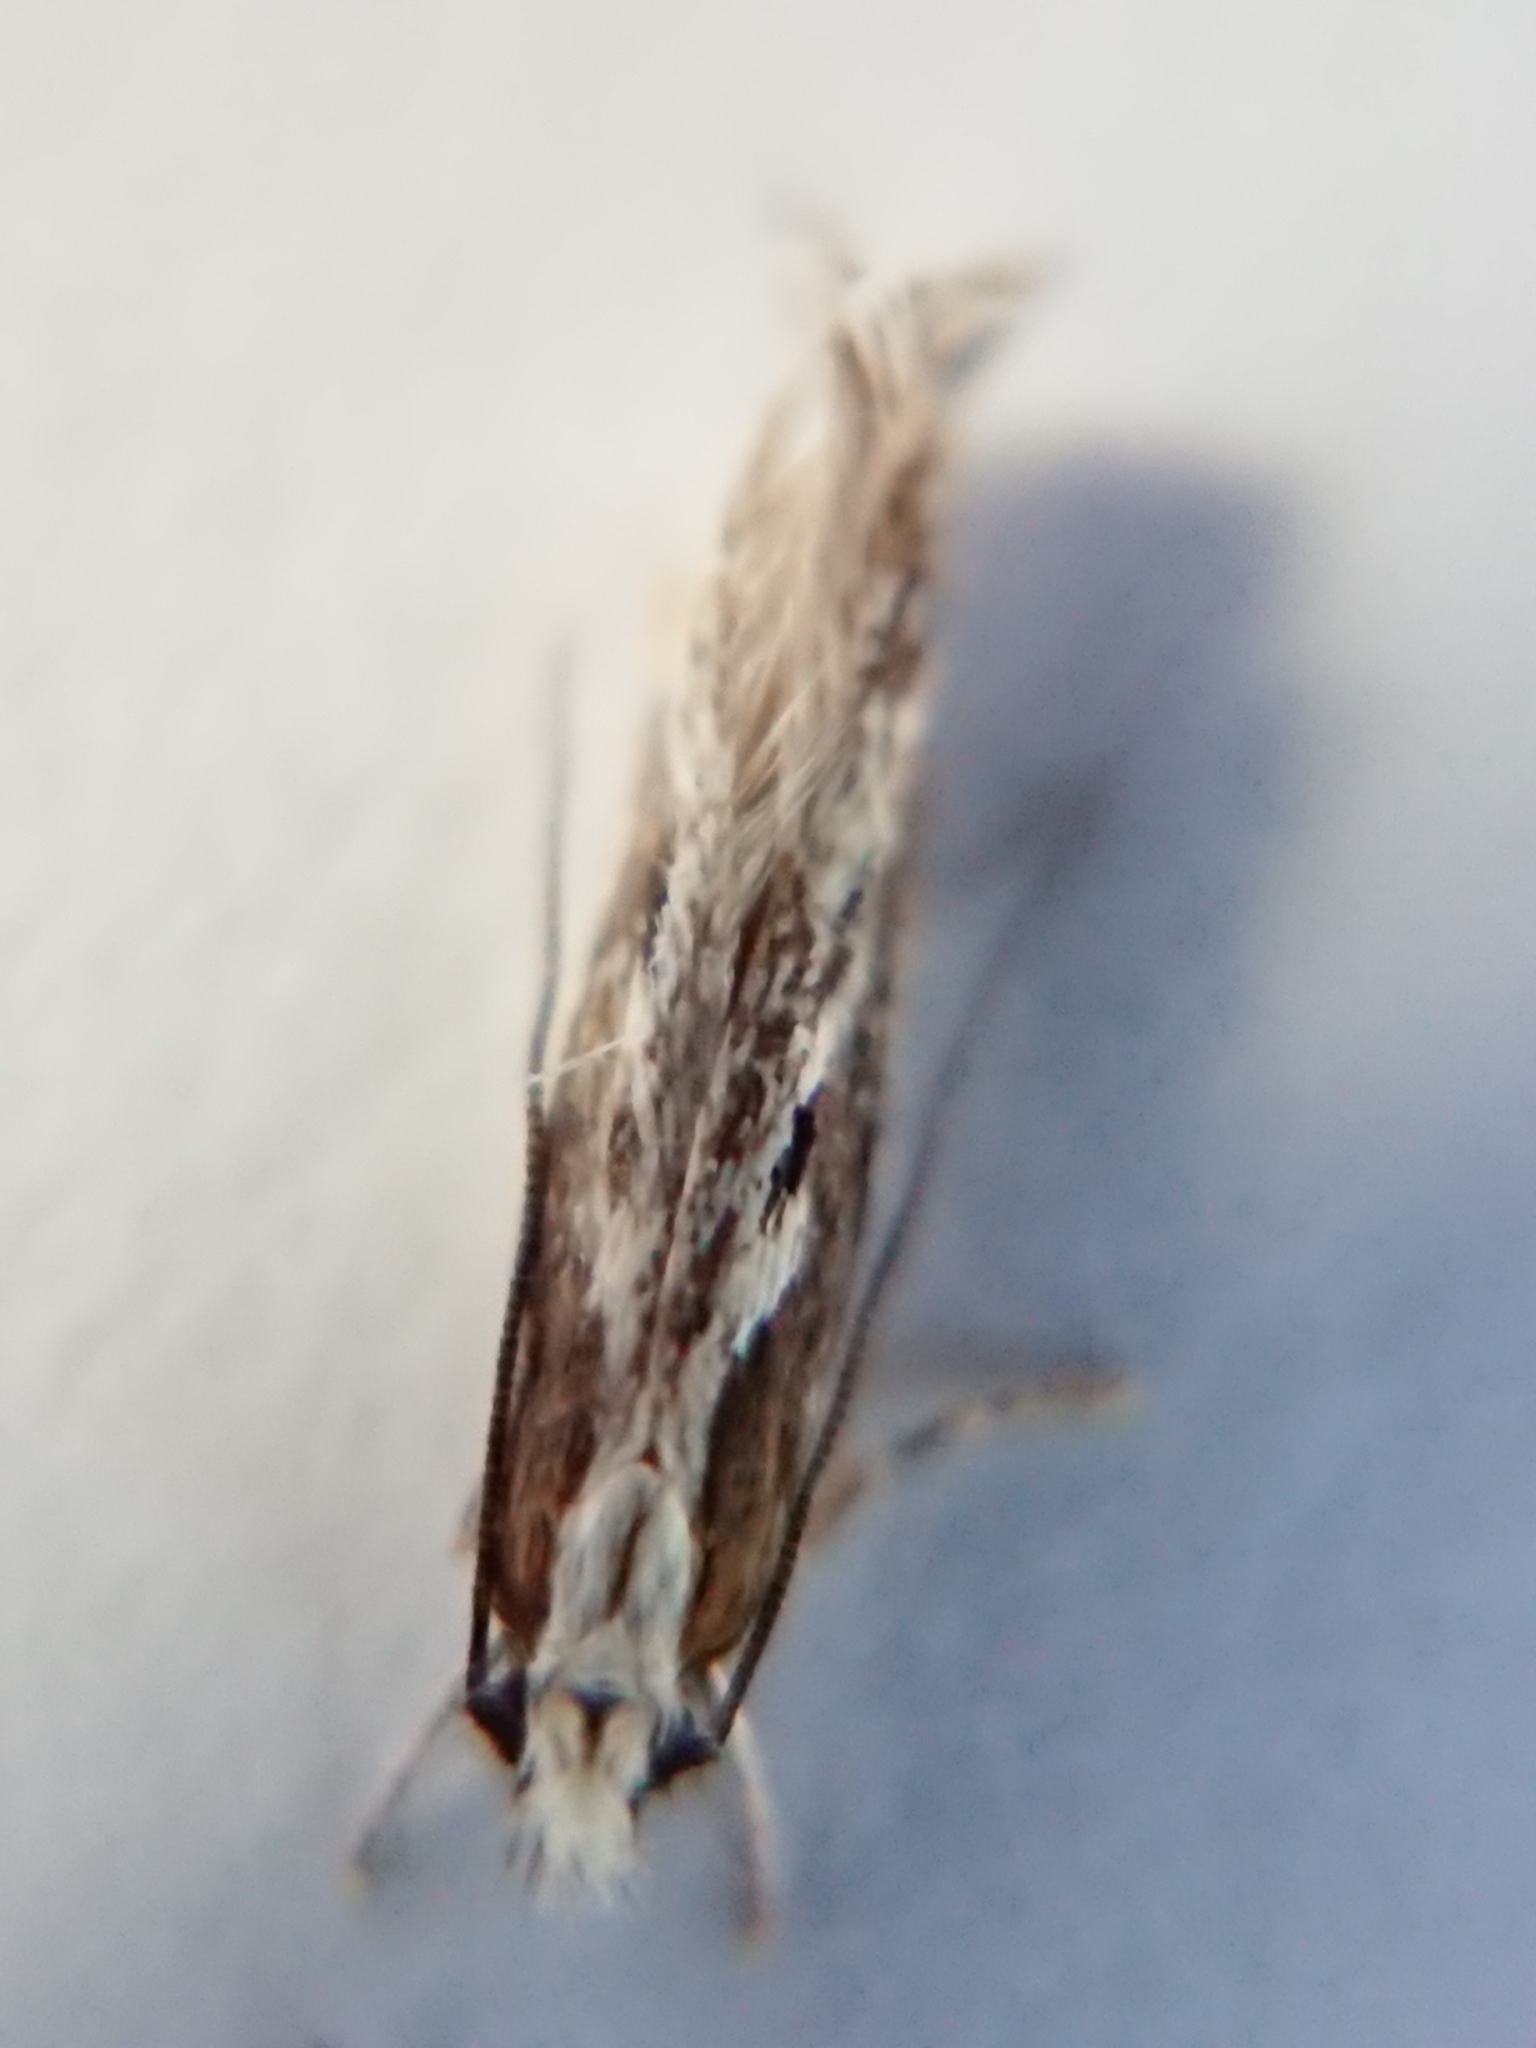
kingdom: Animalia
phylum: Arthropoda
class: Insecta
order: Lepidoptera
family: Tineidae
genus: Erechthias
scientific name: Erechthias fulguritella
